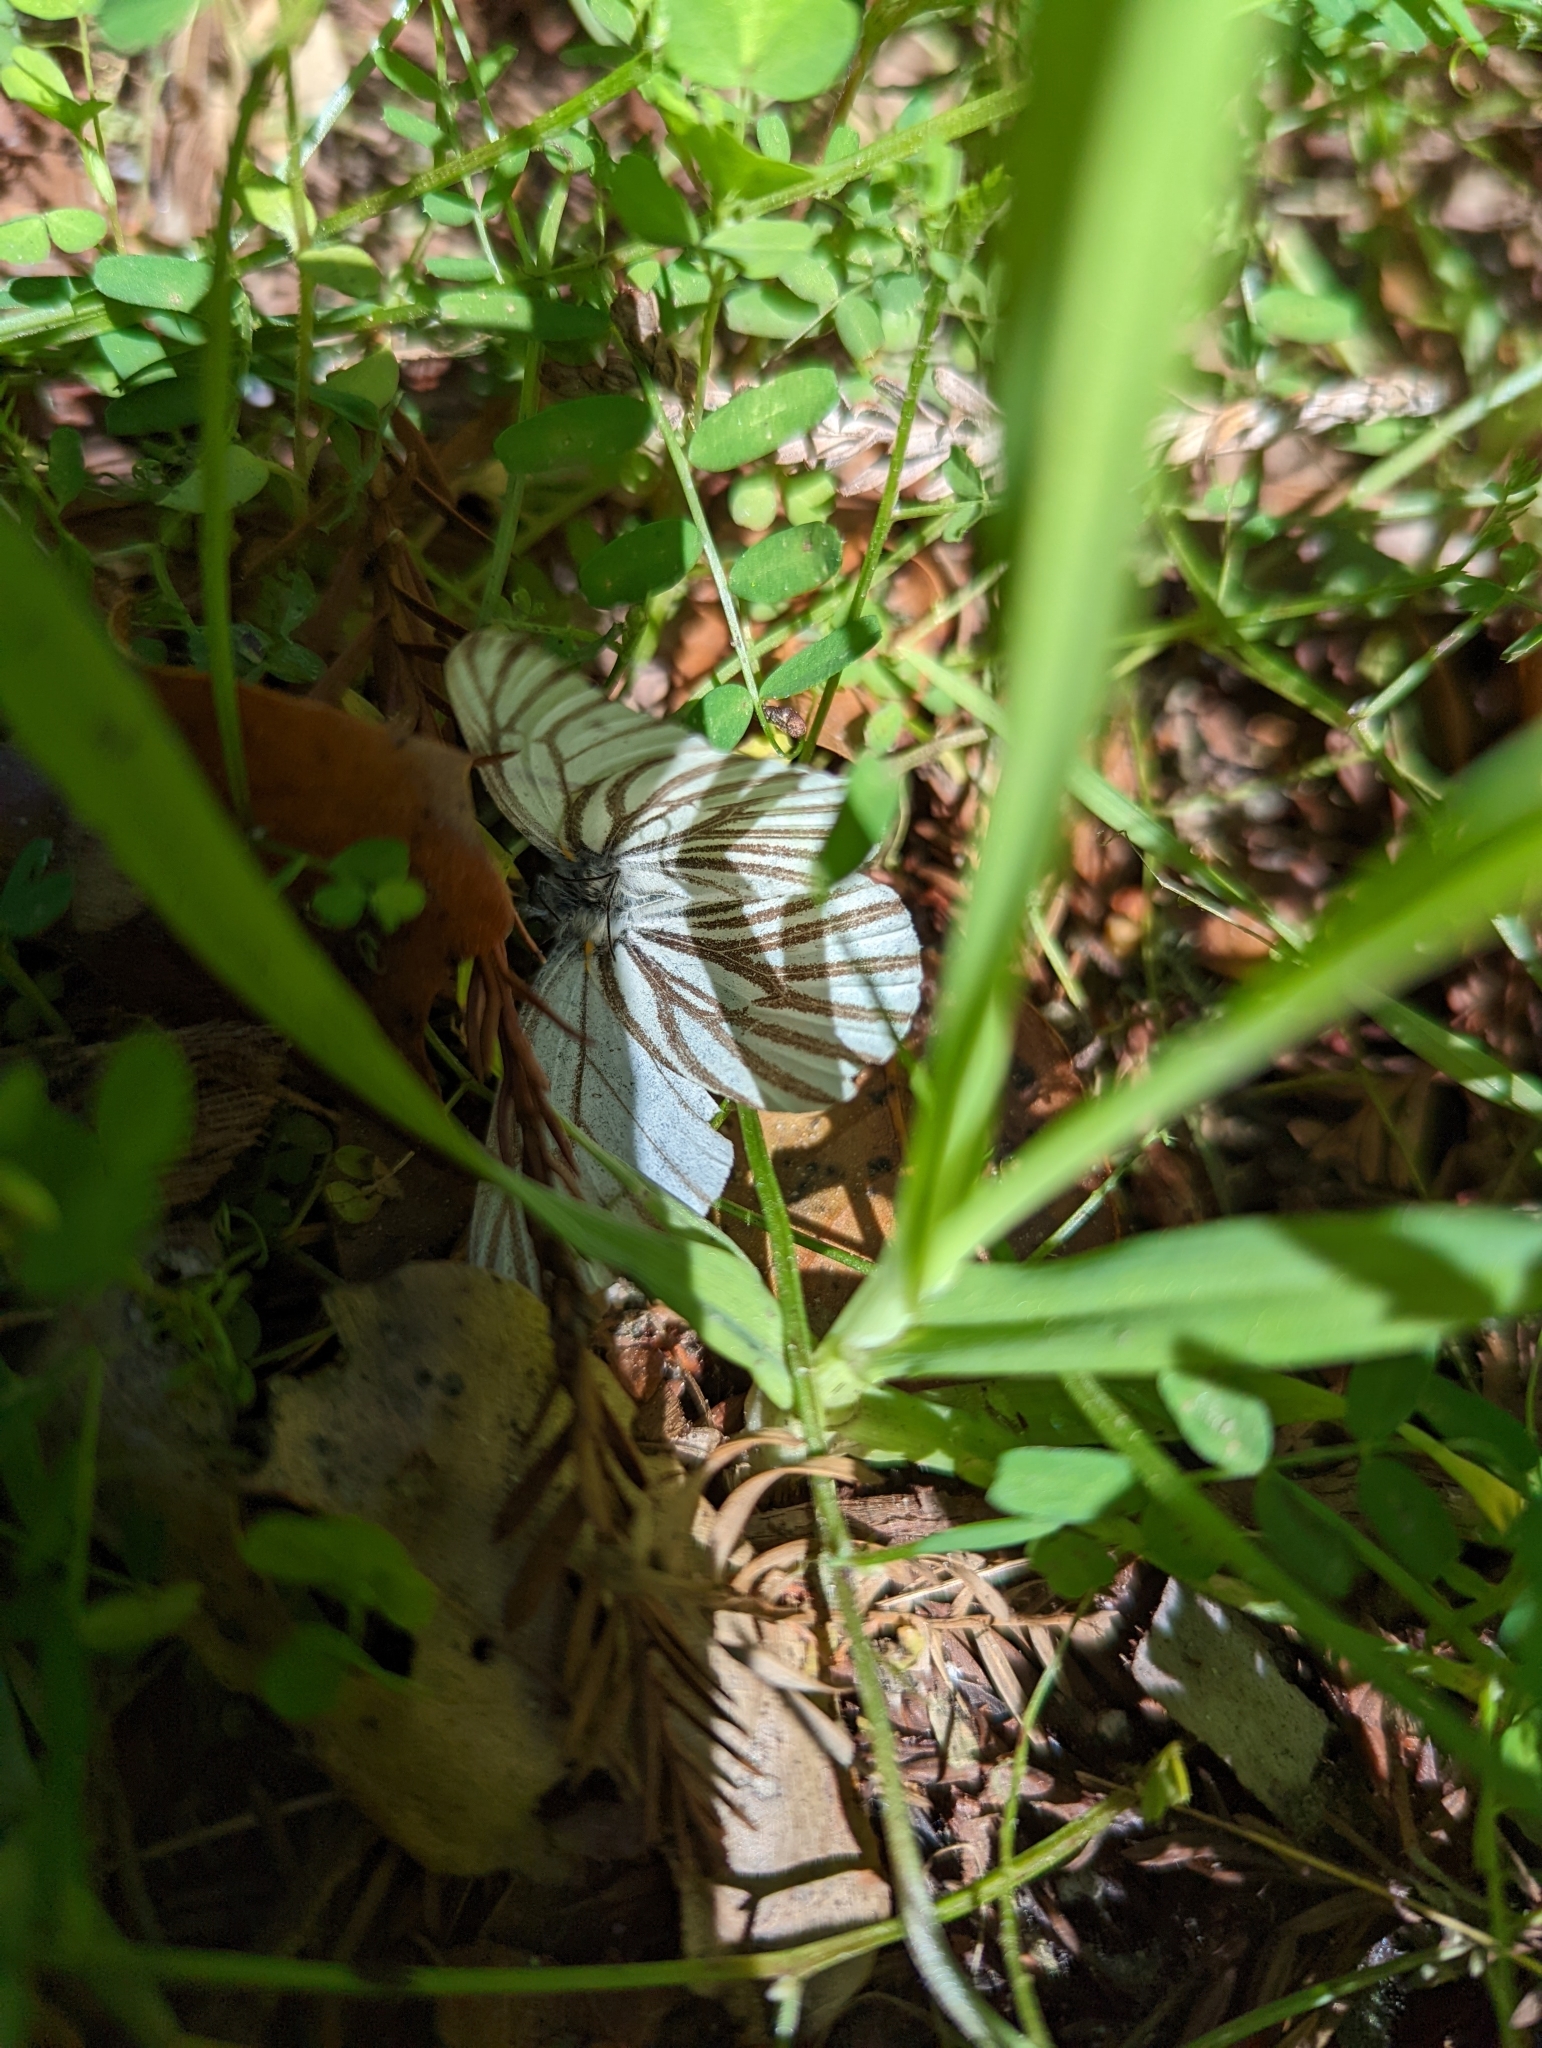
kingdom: Animalia
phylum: Arthropoda
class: Insecta
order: Lepidoptera
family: Pieridae
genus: Pieris
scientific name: Pieris marginalis
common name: Margined white
